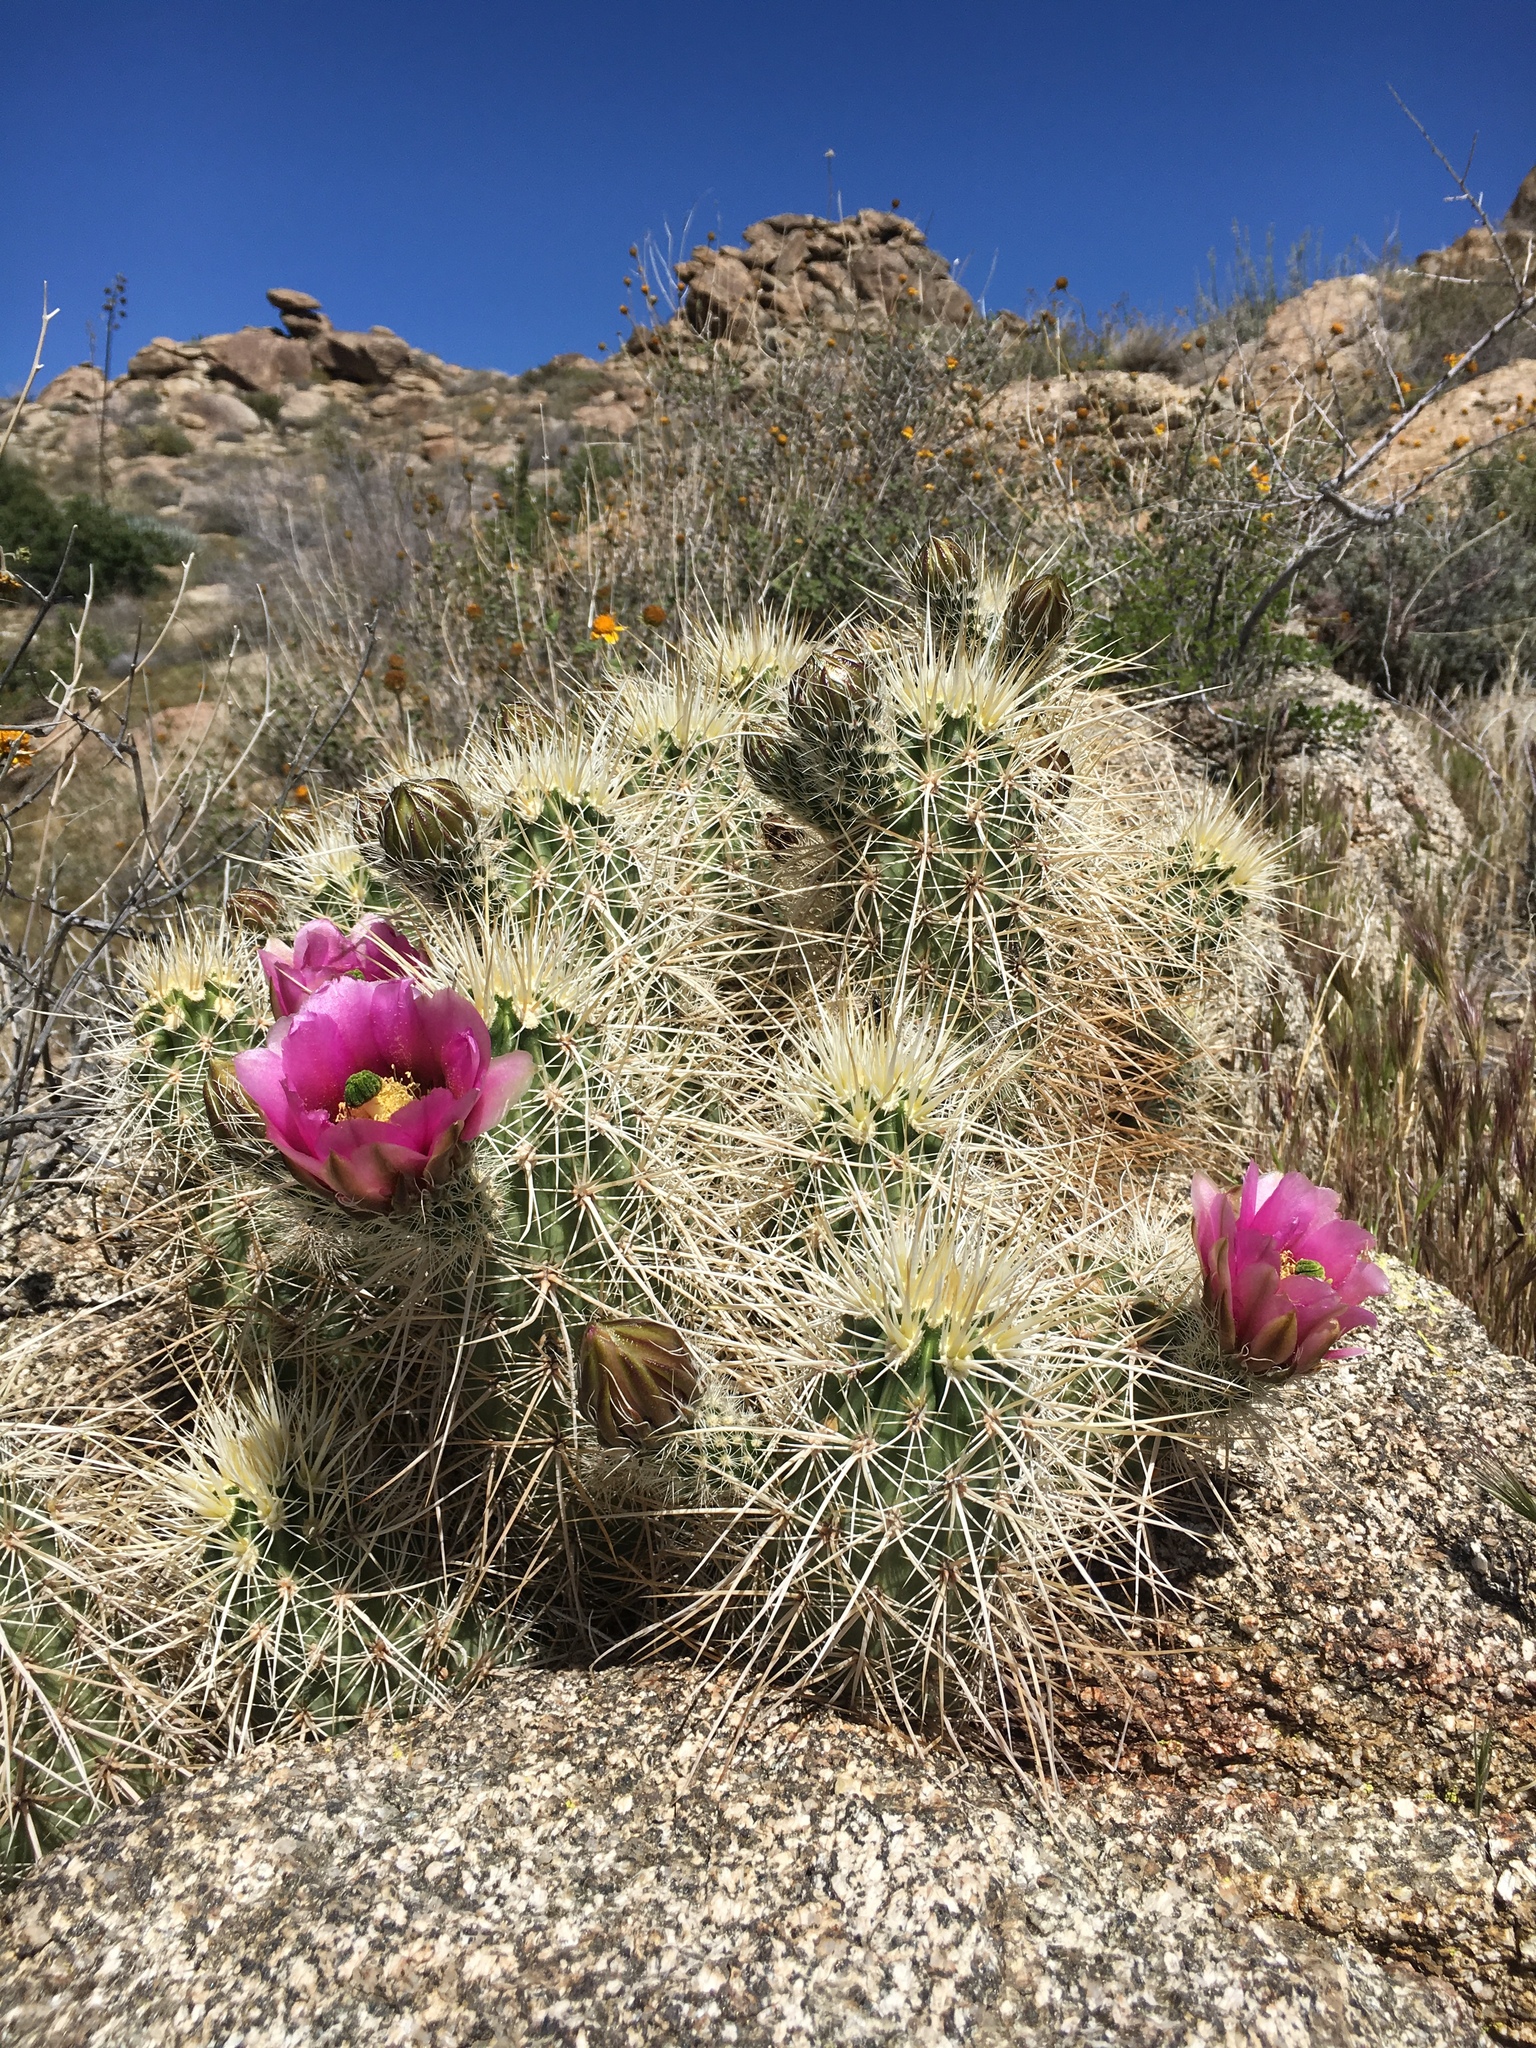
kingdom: Plantae
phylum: Tracheophyta
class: Magnoliopsida
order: Caryophyllales
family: Cactaceae
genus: Echinocereus
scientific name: Echinocereus engelmannii
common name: Engelmann's hedgehog cactus
